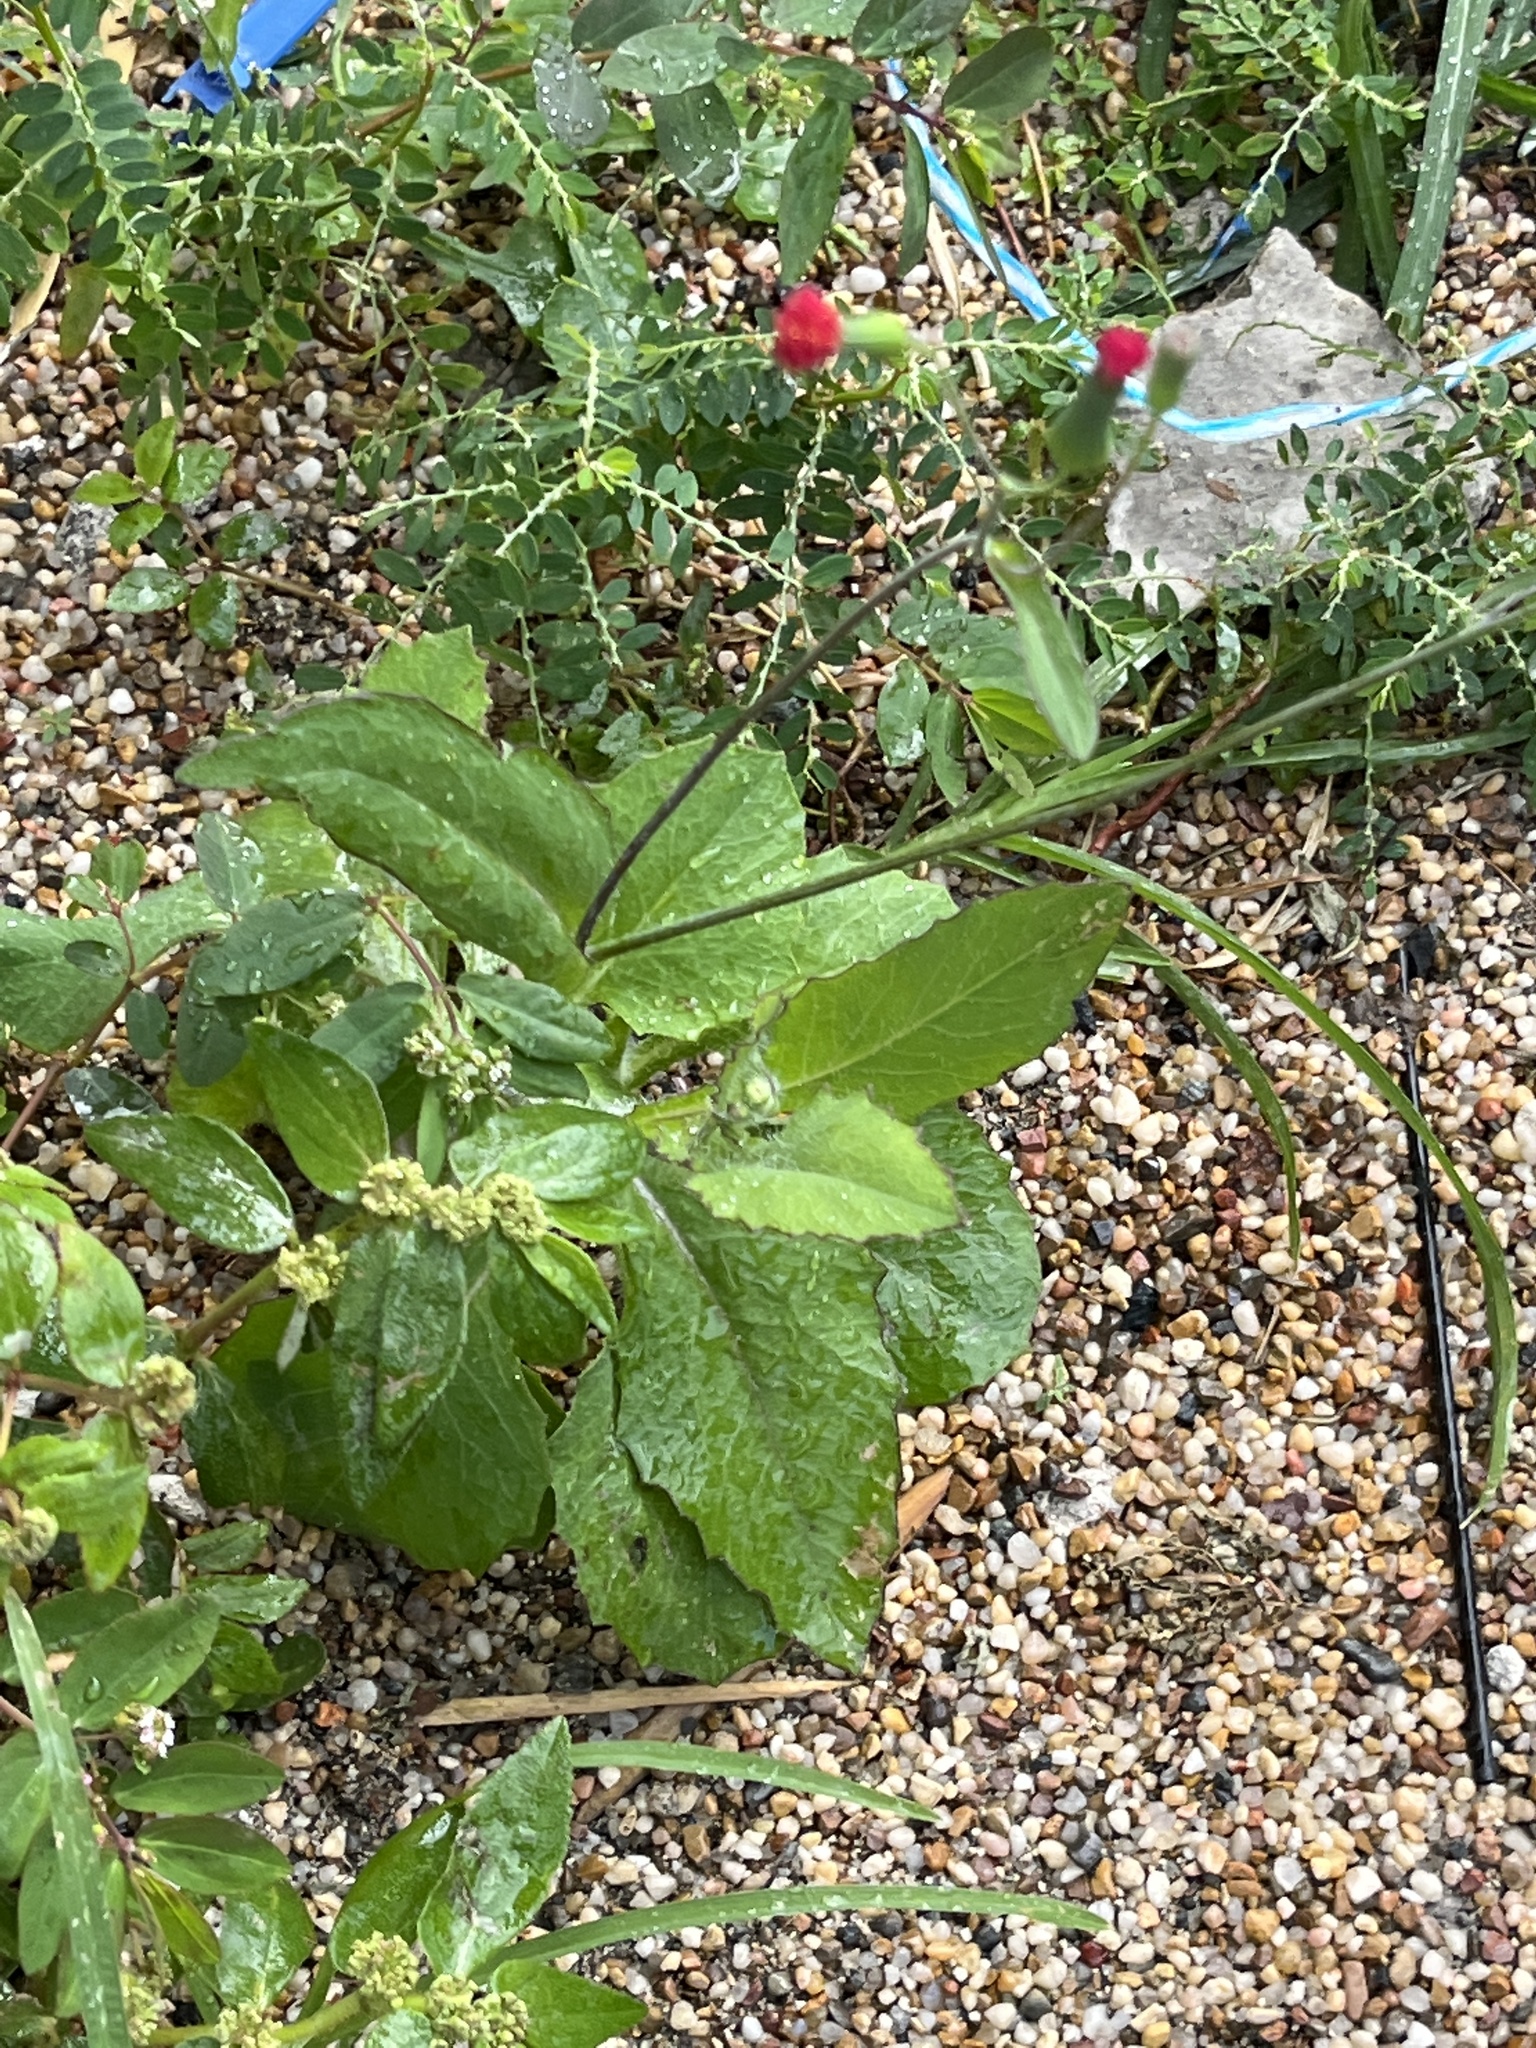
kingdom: Plantae
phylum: Tracheophyta
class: Magnoliopsida
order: Asterales
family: Asteraceae
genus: Emilia
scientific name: Emilia fosbergii
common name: Florida tasselflower
